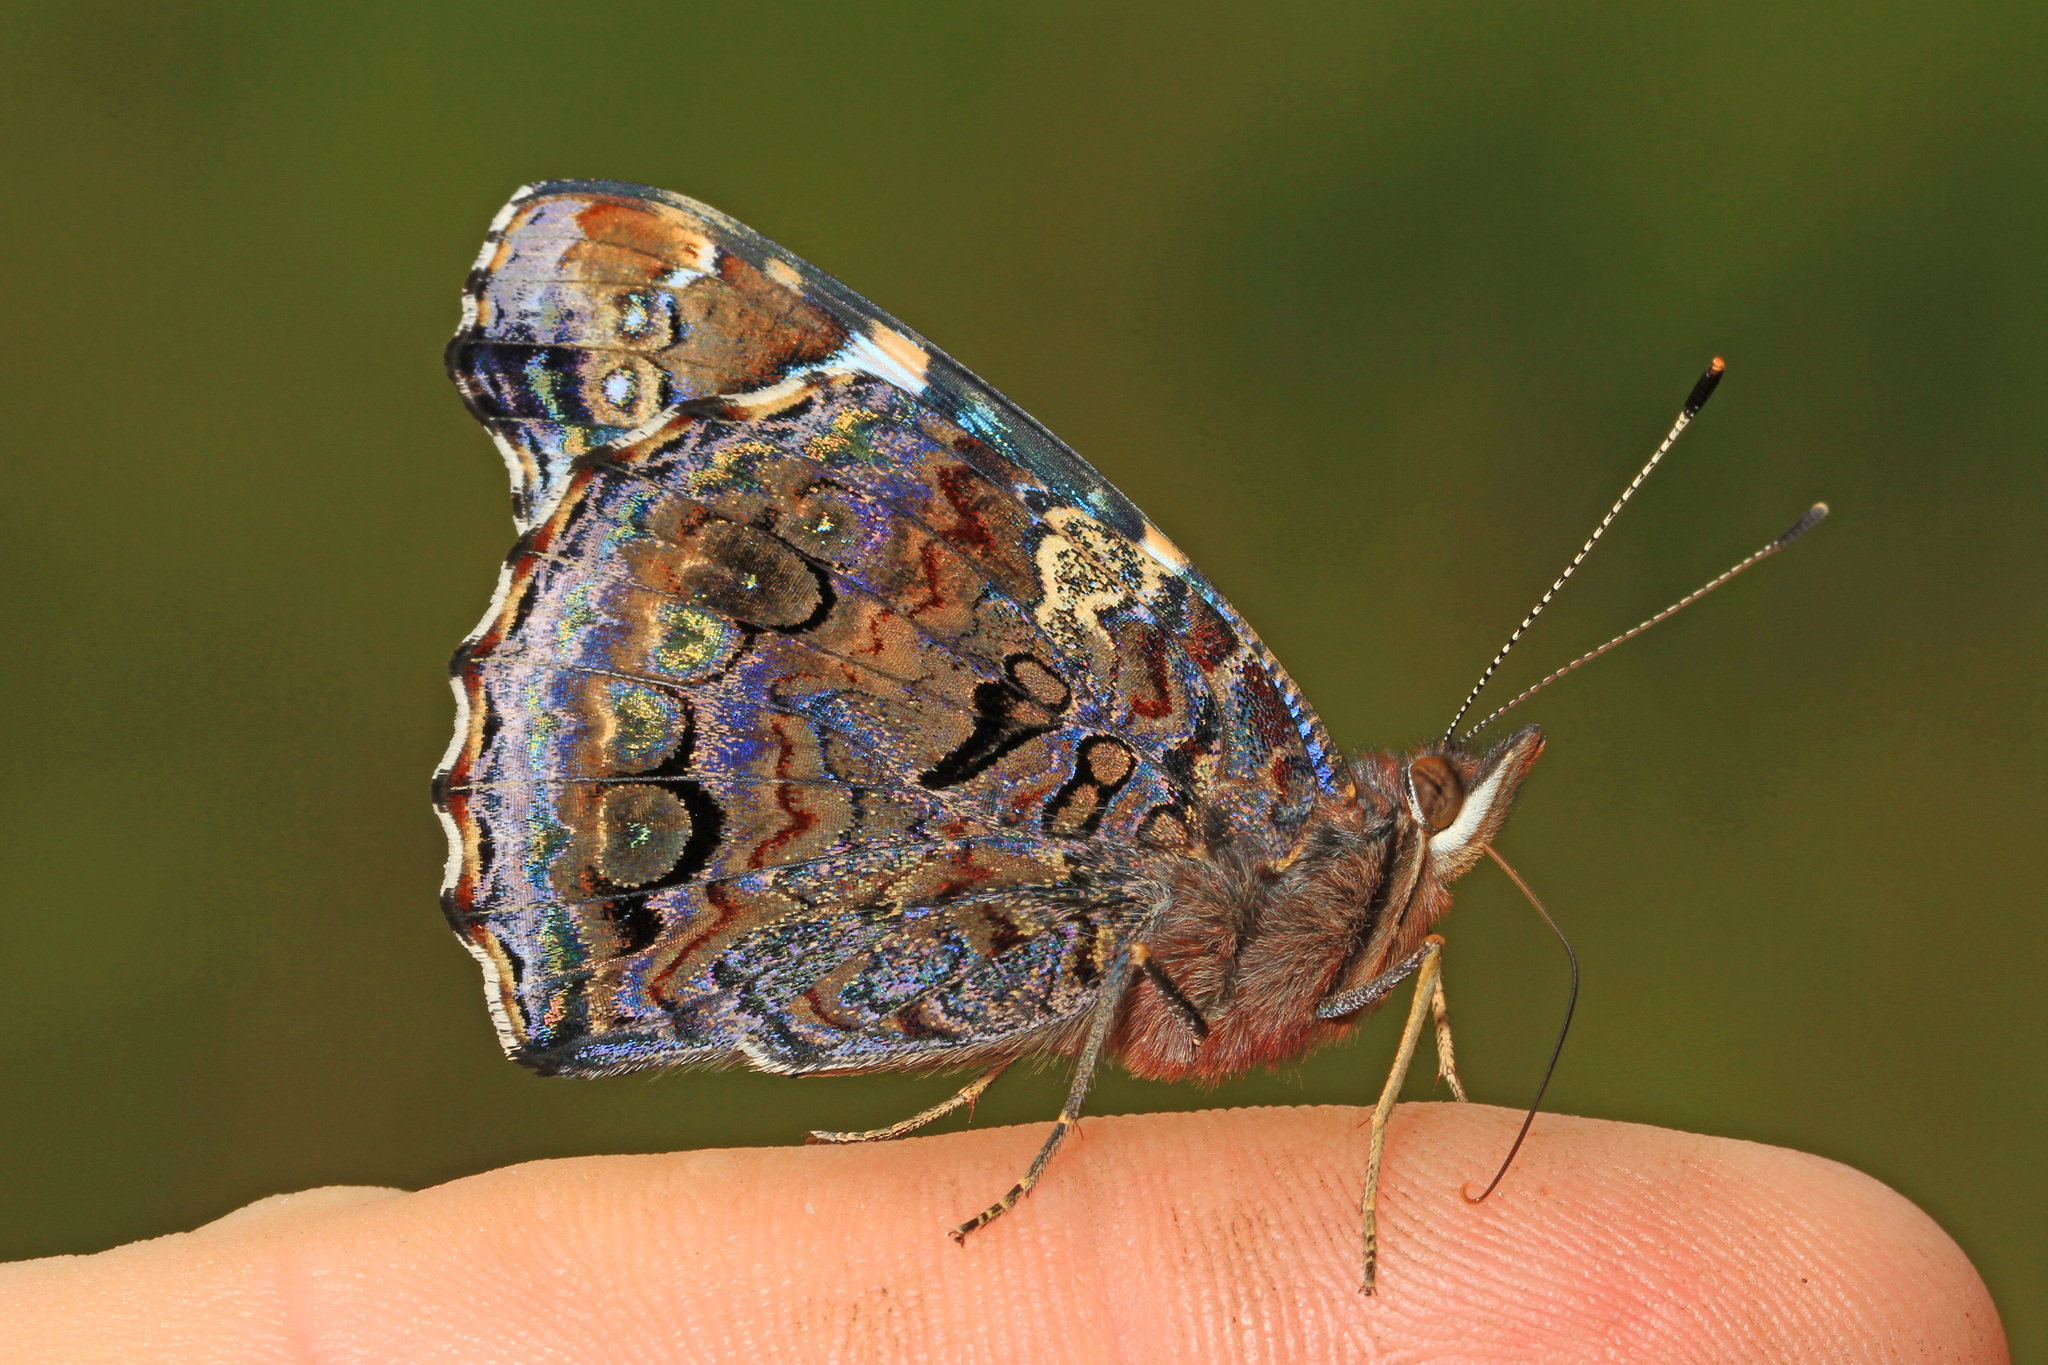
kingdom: Animalia
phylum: Arthropoda
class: Insecta
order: Lepidoptera
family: Nymphalidae
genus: Vanessa
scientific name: Vanessa atalanta
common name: Red admiral
